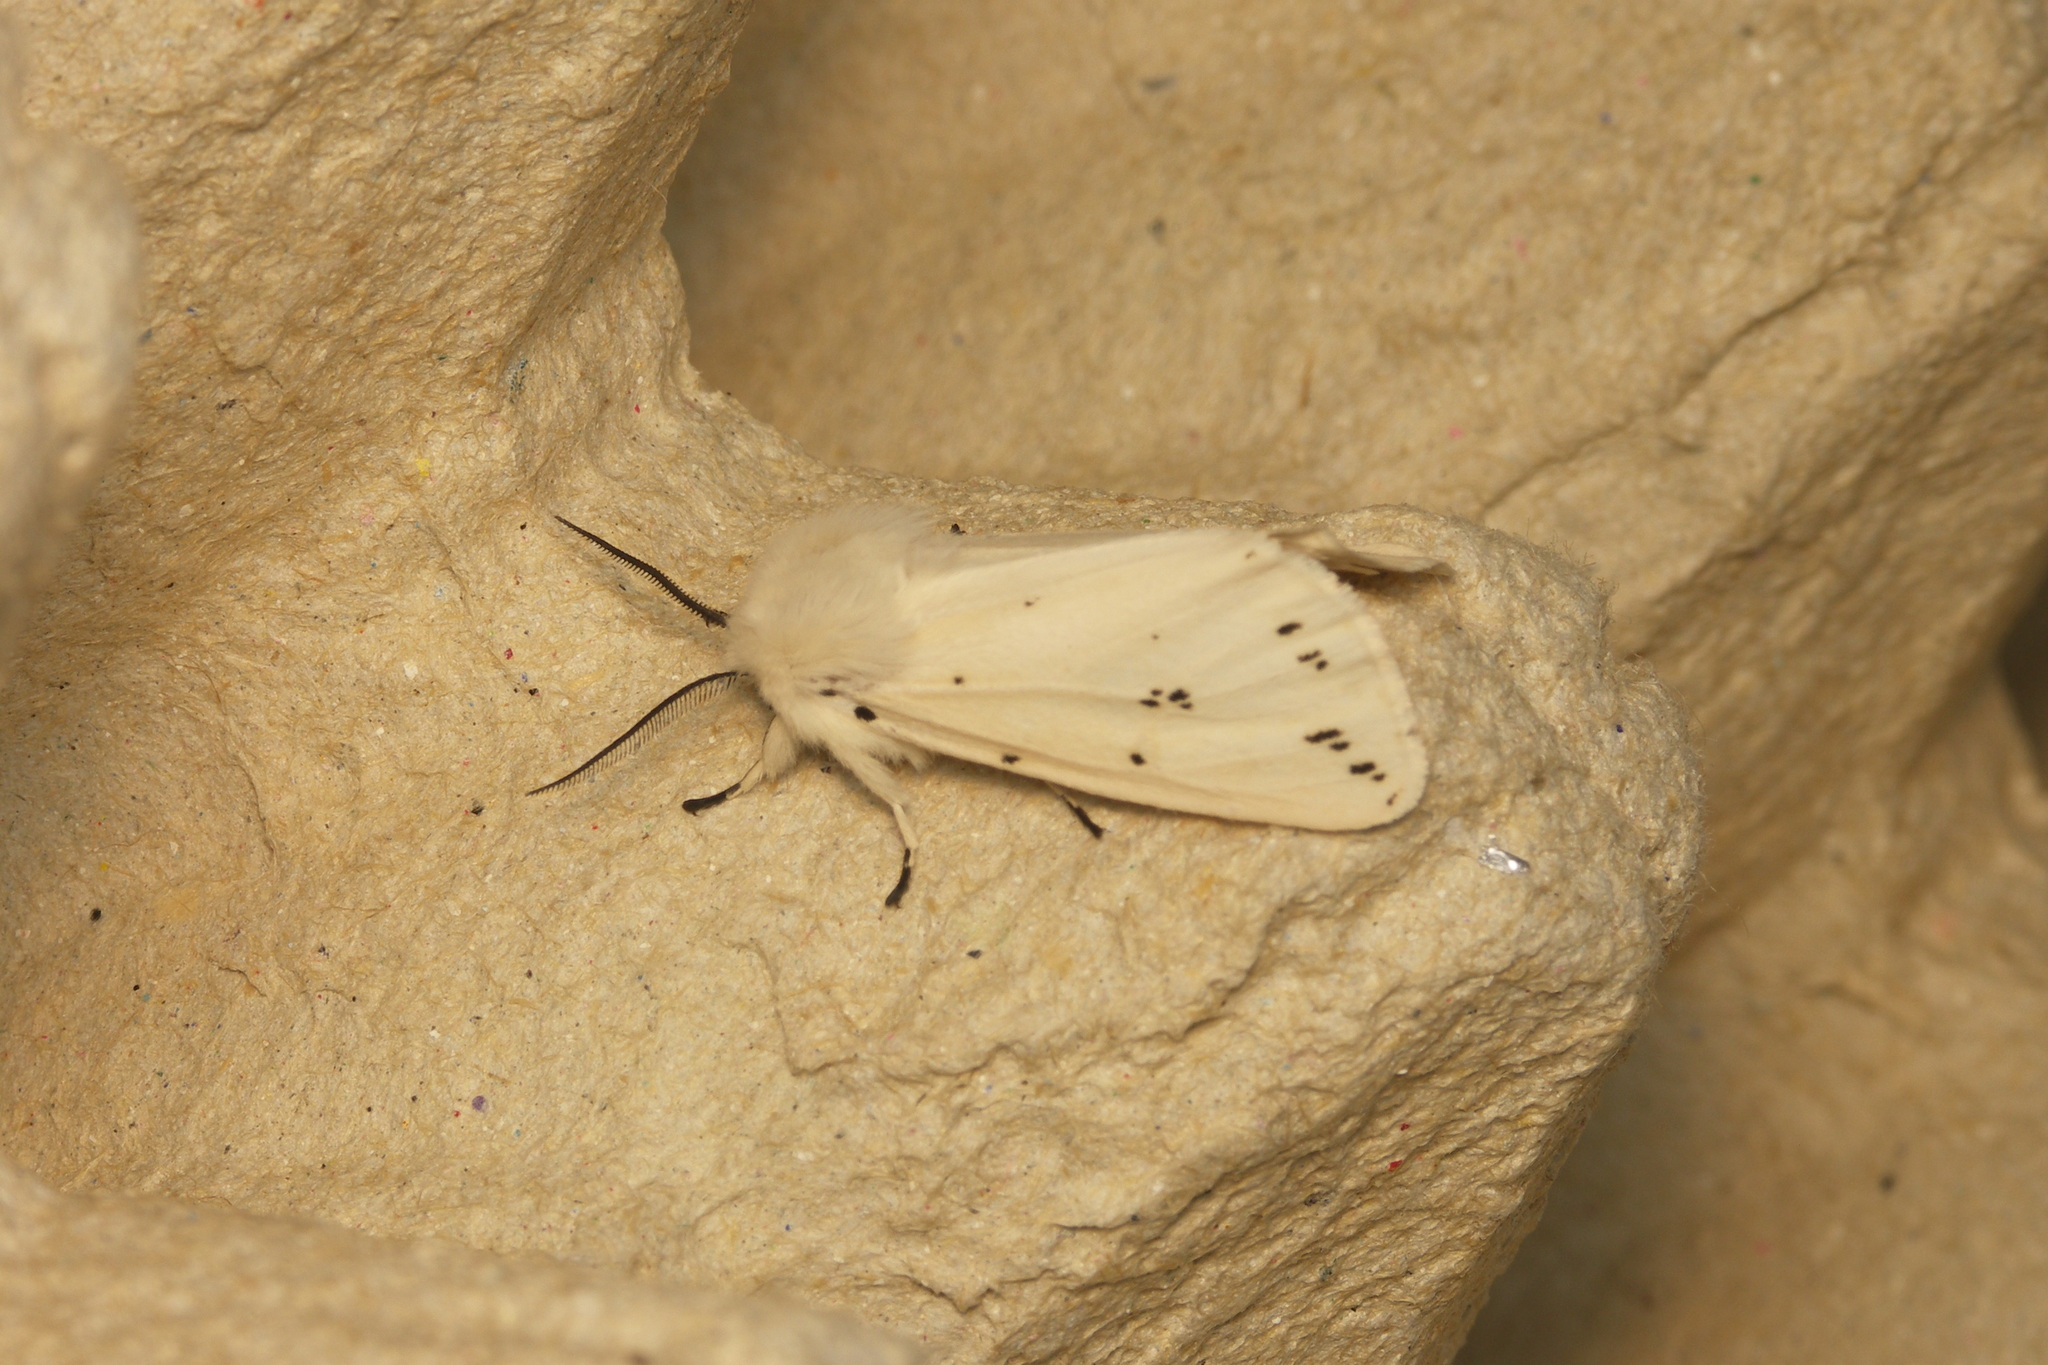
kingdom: Animalia
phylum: Arthropoda
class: Insecta
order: Lepidoptera
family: Erebidae
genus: Spilosoma
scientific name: Spilosoma lubricipeda
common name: White ermine
